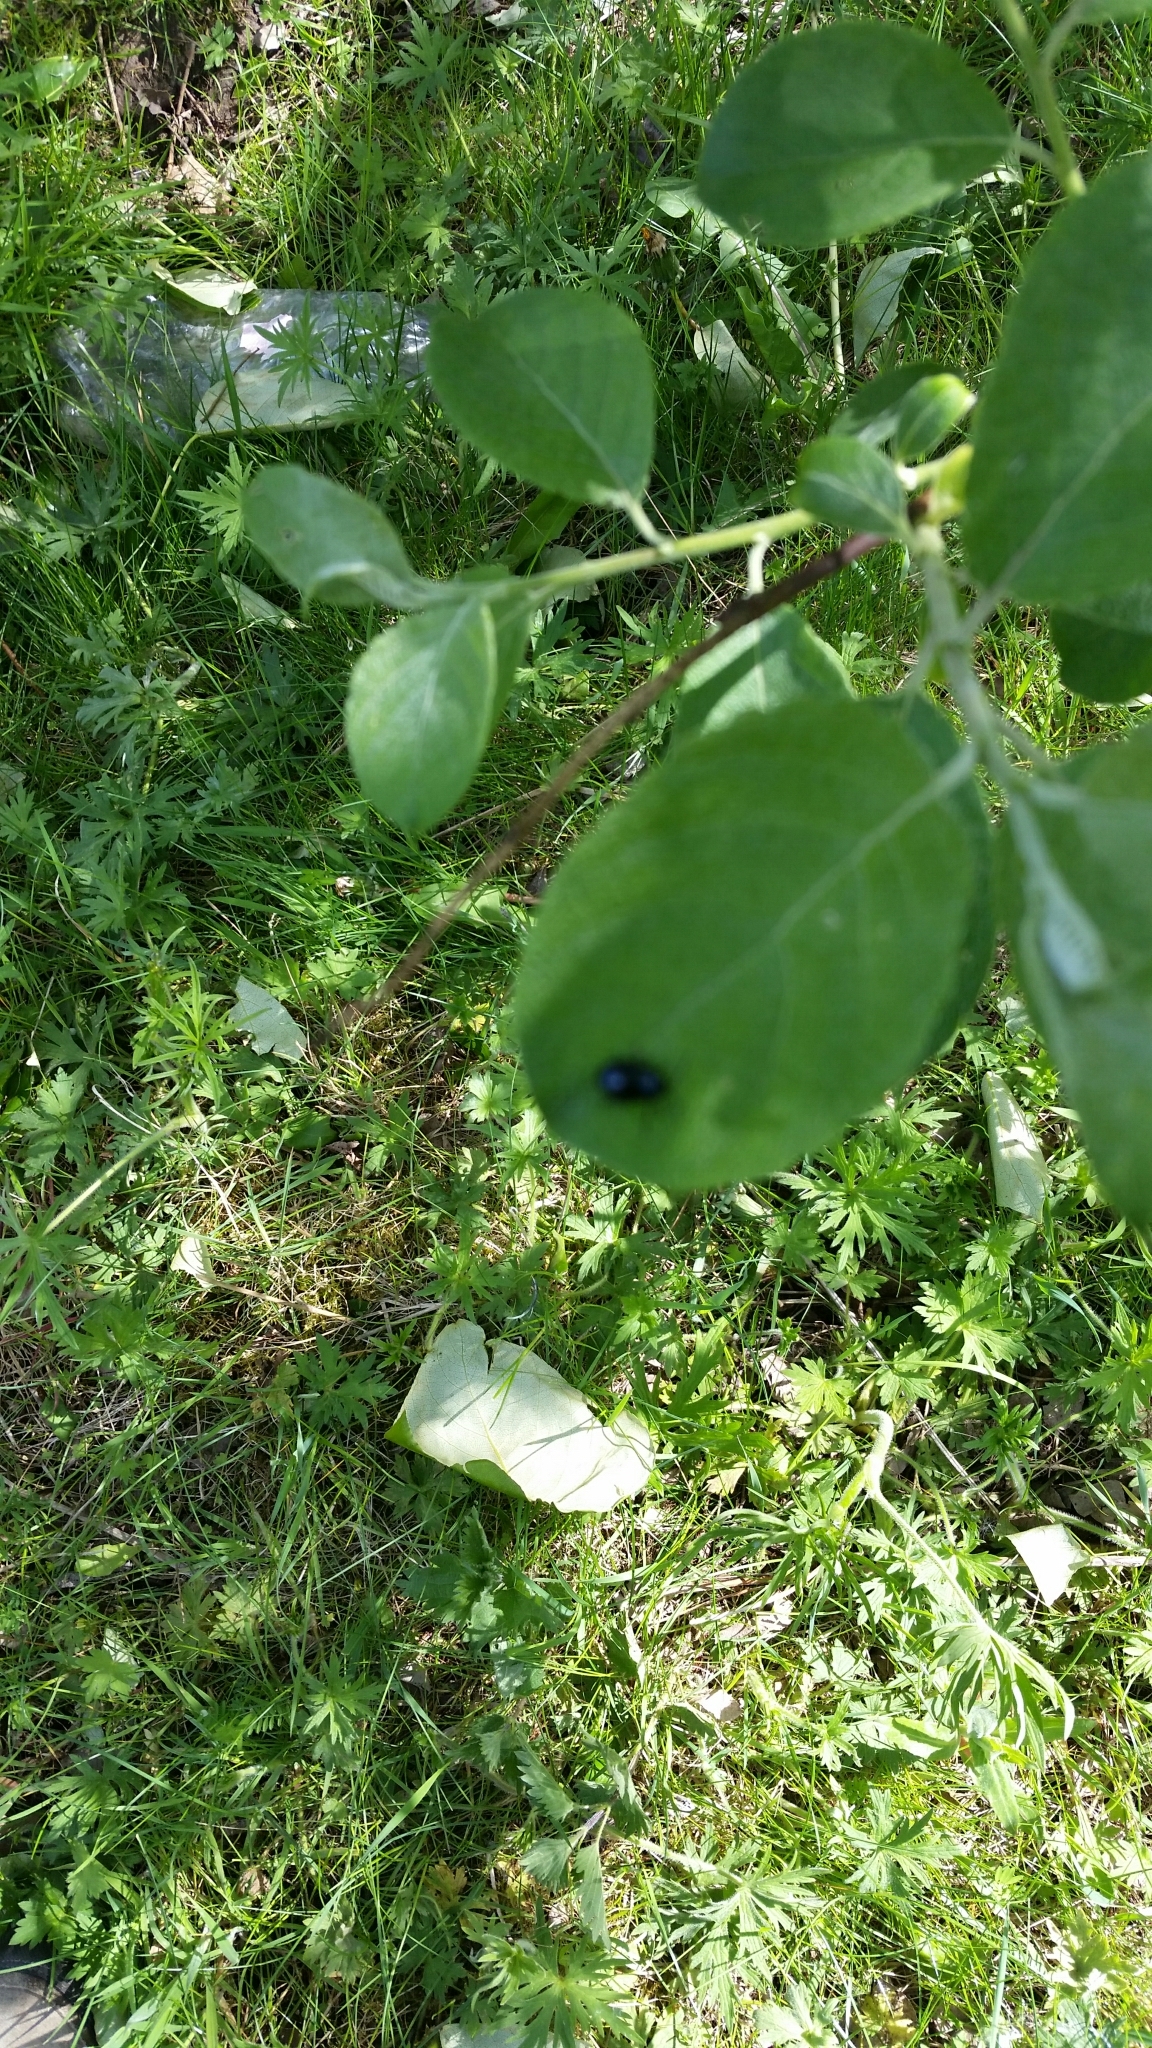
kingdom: Animalia
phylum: Arthropoda
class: Insecta
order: Coleoptera
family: Chrysomelidae
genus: Agelastica
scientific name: Agelastica alni
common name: Alder leaf beetle
